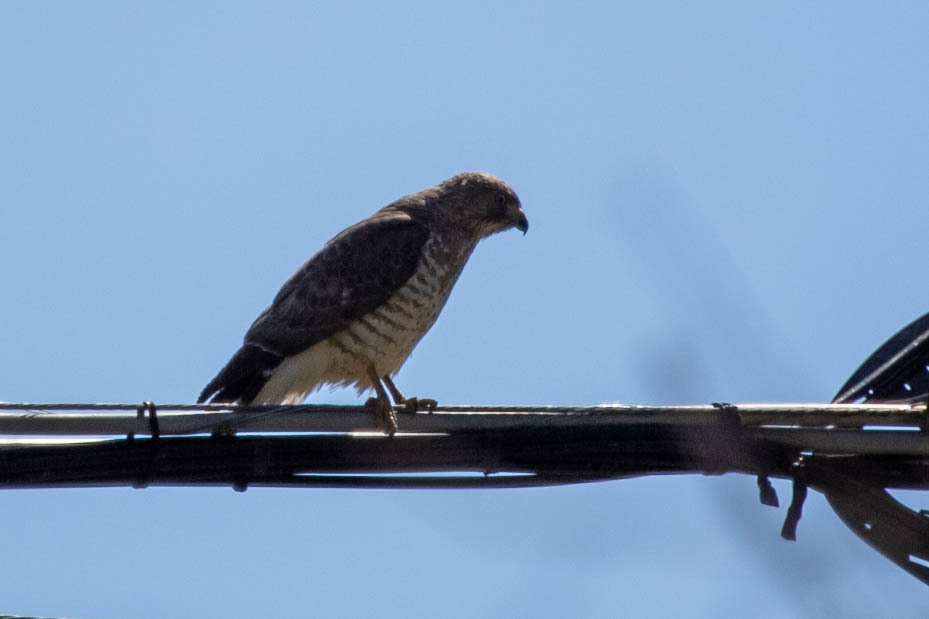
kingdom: Animalia
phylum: Chordata
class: Aves
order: Accipitriformes
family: Accipitridae
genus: Buteo
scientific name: Buteo platypterus
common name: Broad-winged hawk
